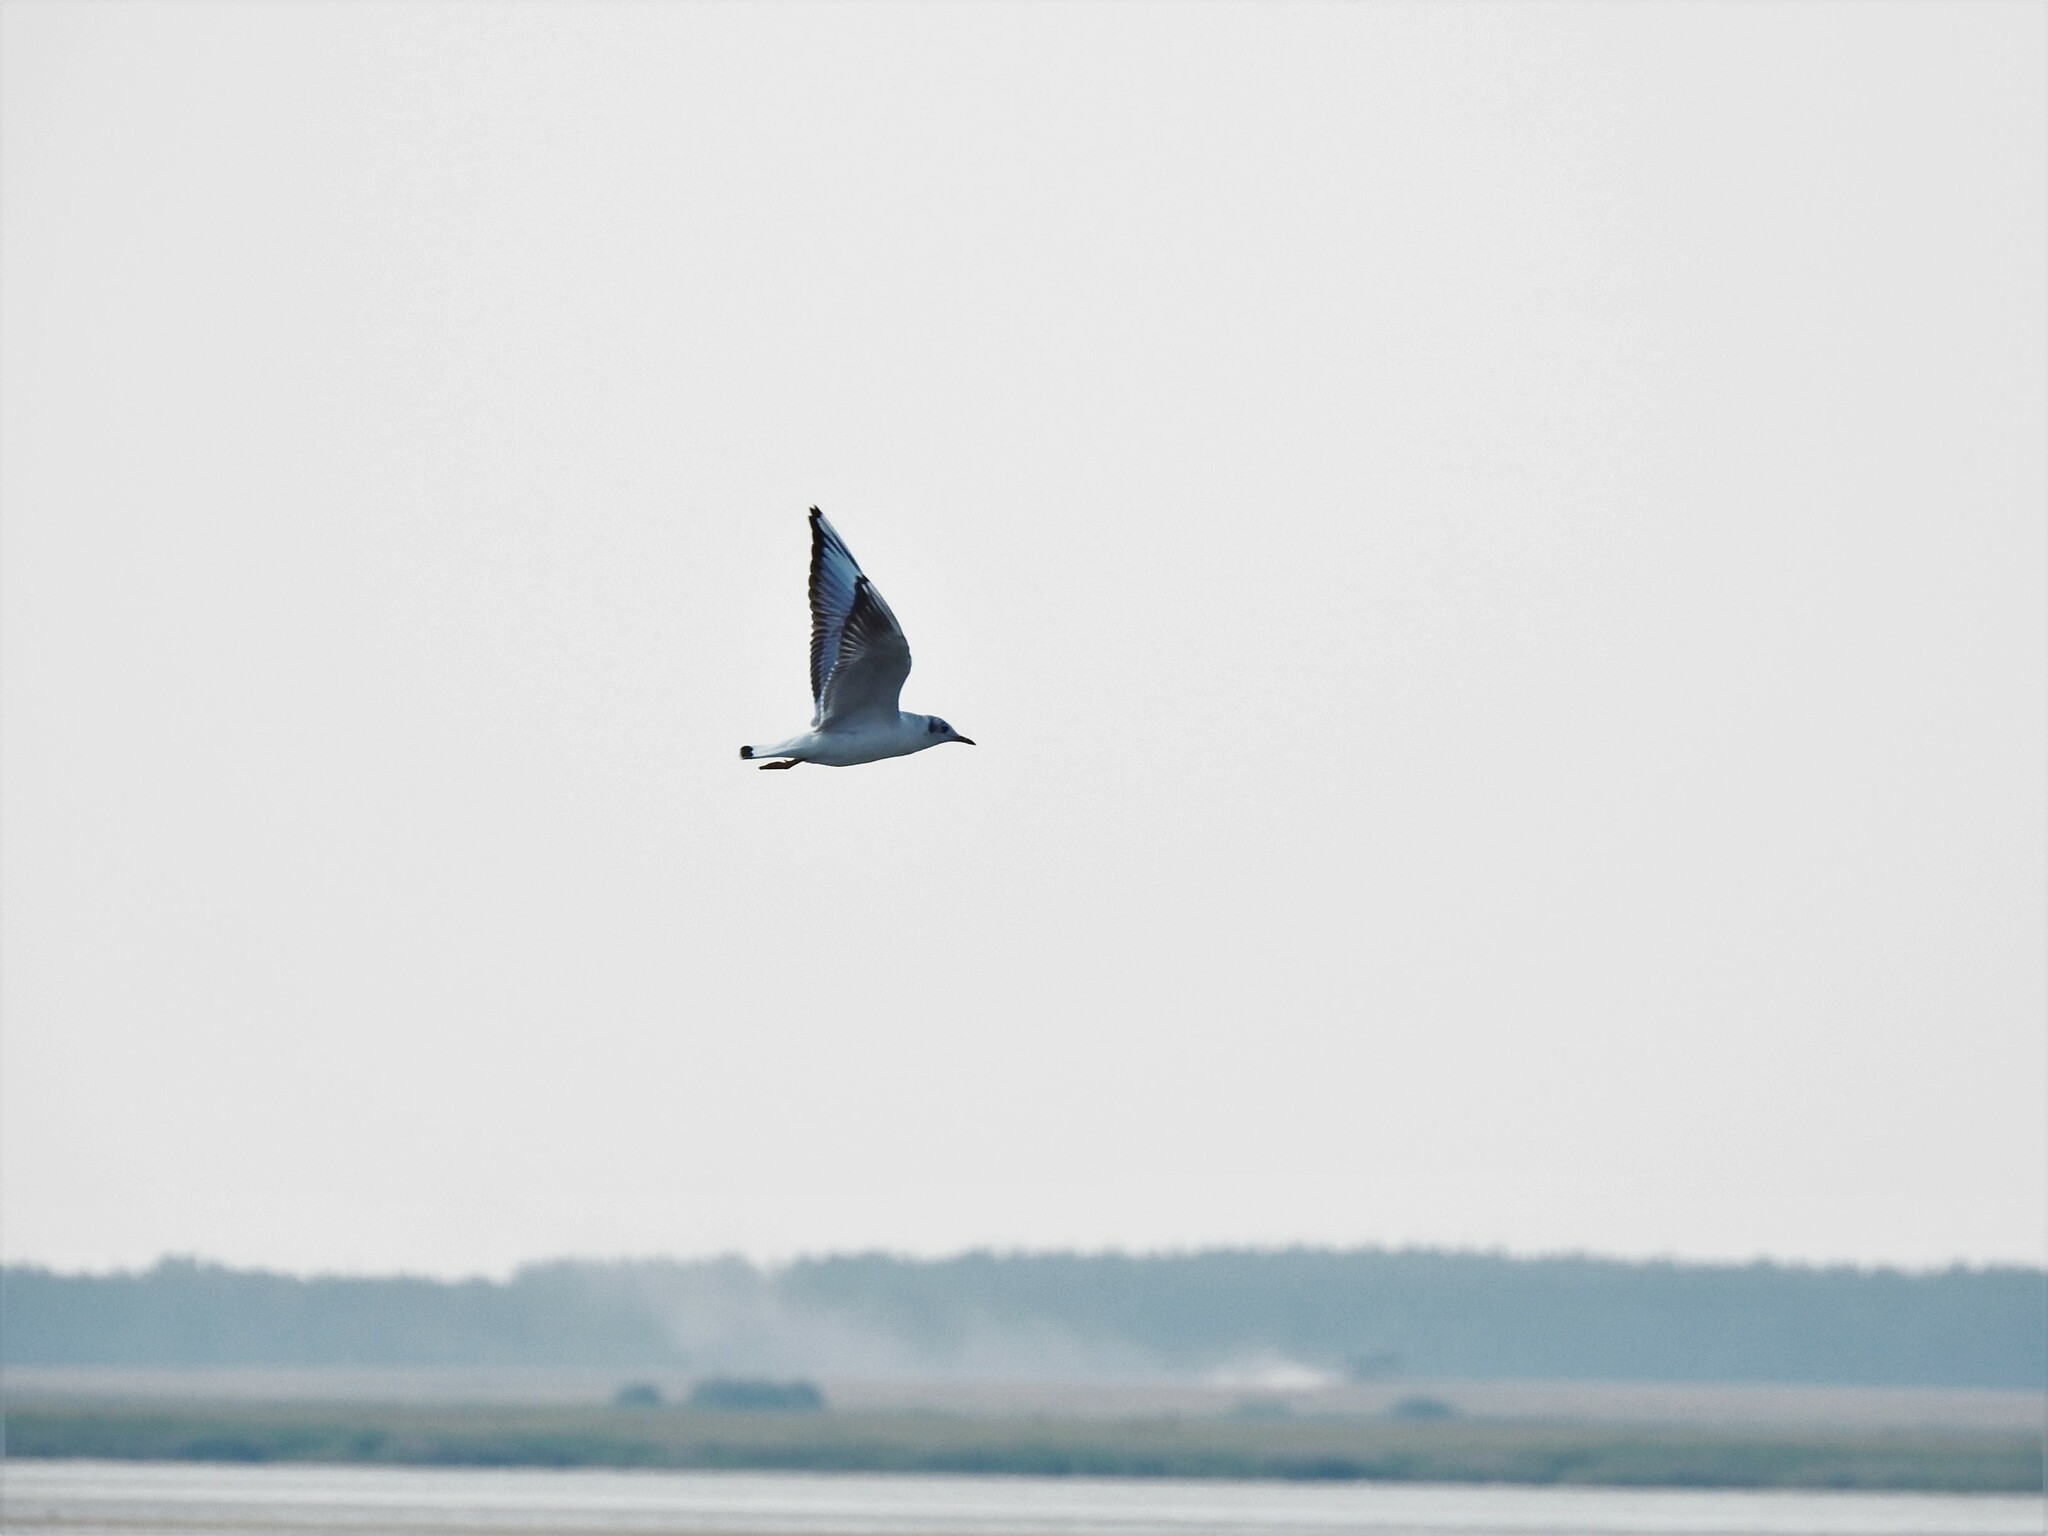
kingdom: Animalia
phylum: Chordata
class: Aves
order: Charadriiformes
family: Laridae
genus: Chroicocephalus
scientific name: Chroicocephalus ridibundus
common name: Black-headed gull
